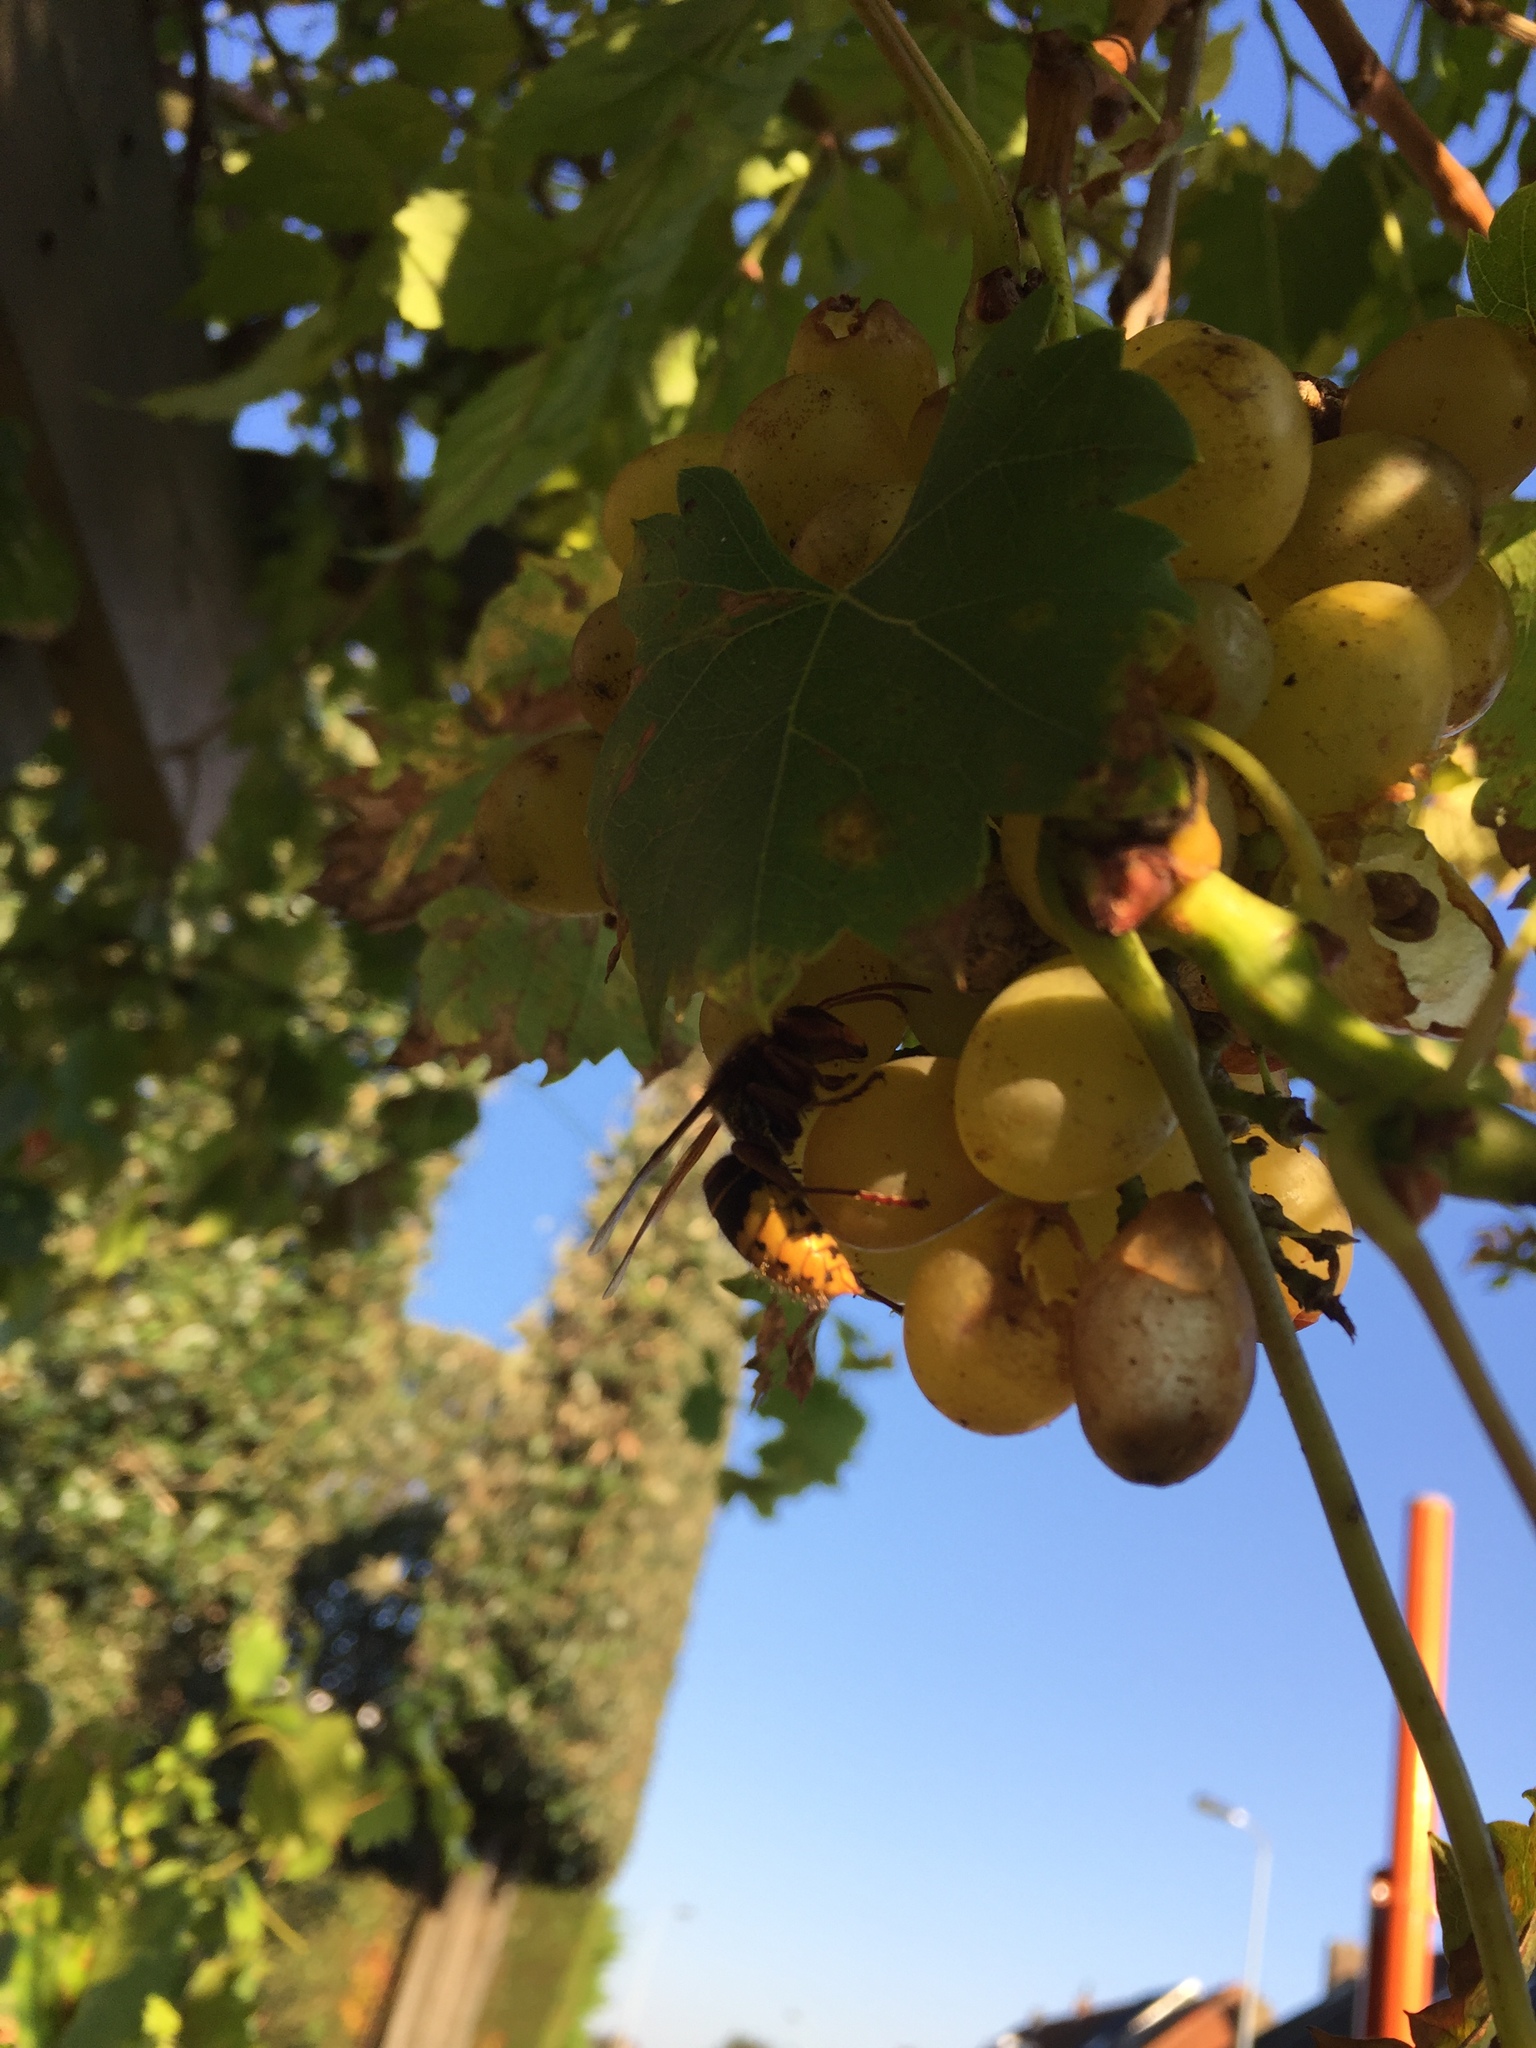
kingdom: Animalia
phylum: Arthropoda
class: Insecta
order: Hymenoptera
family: Vespidae
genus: Vespa
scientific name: Vespa crabro
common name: Hornet
